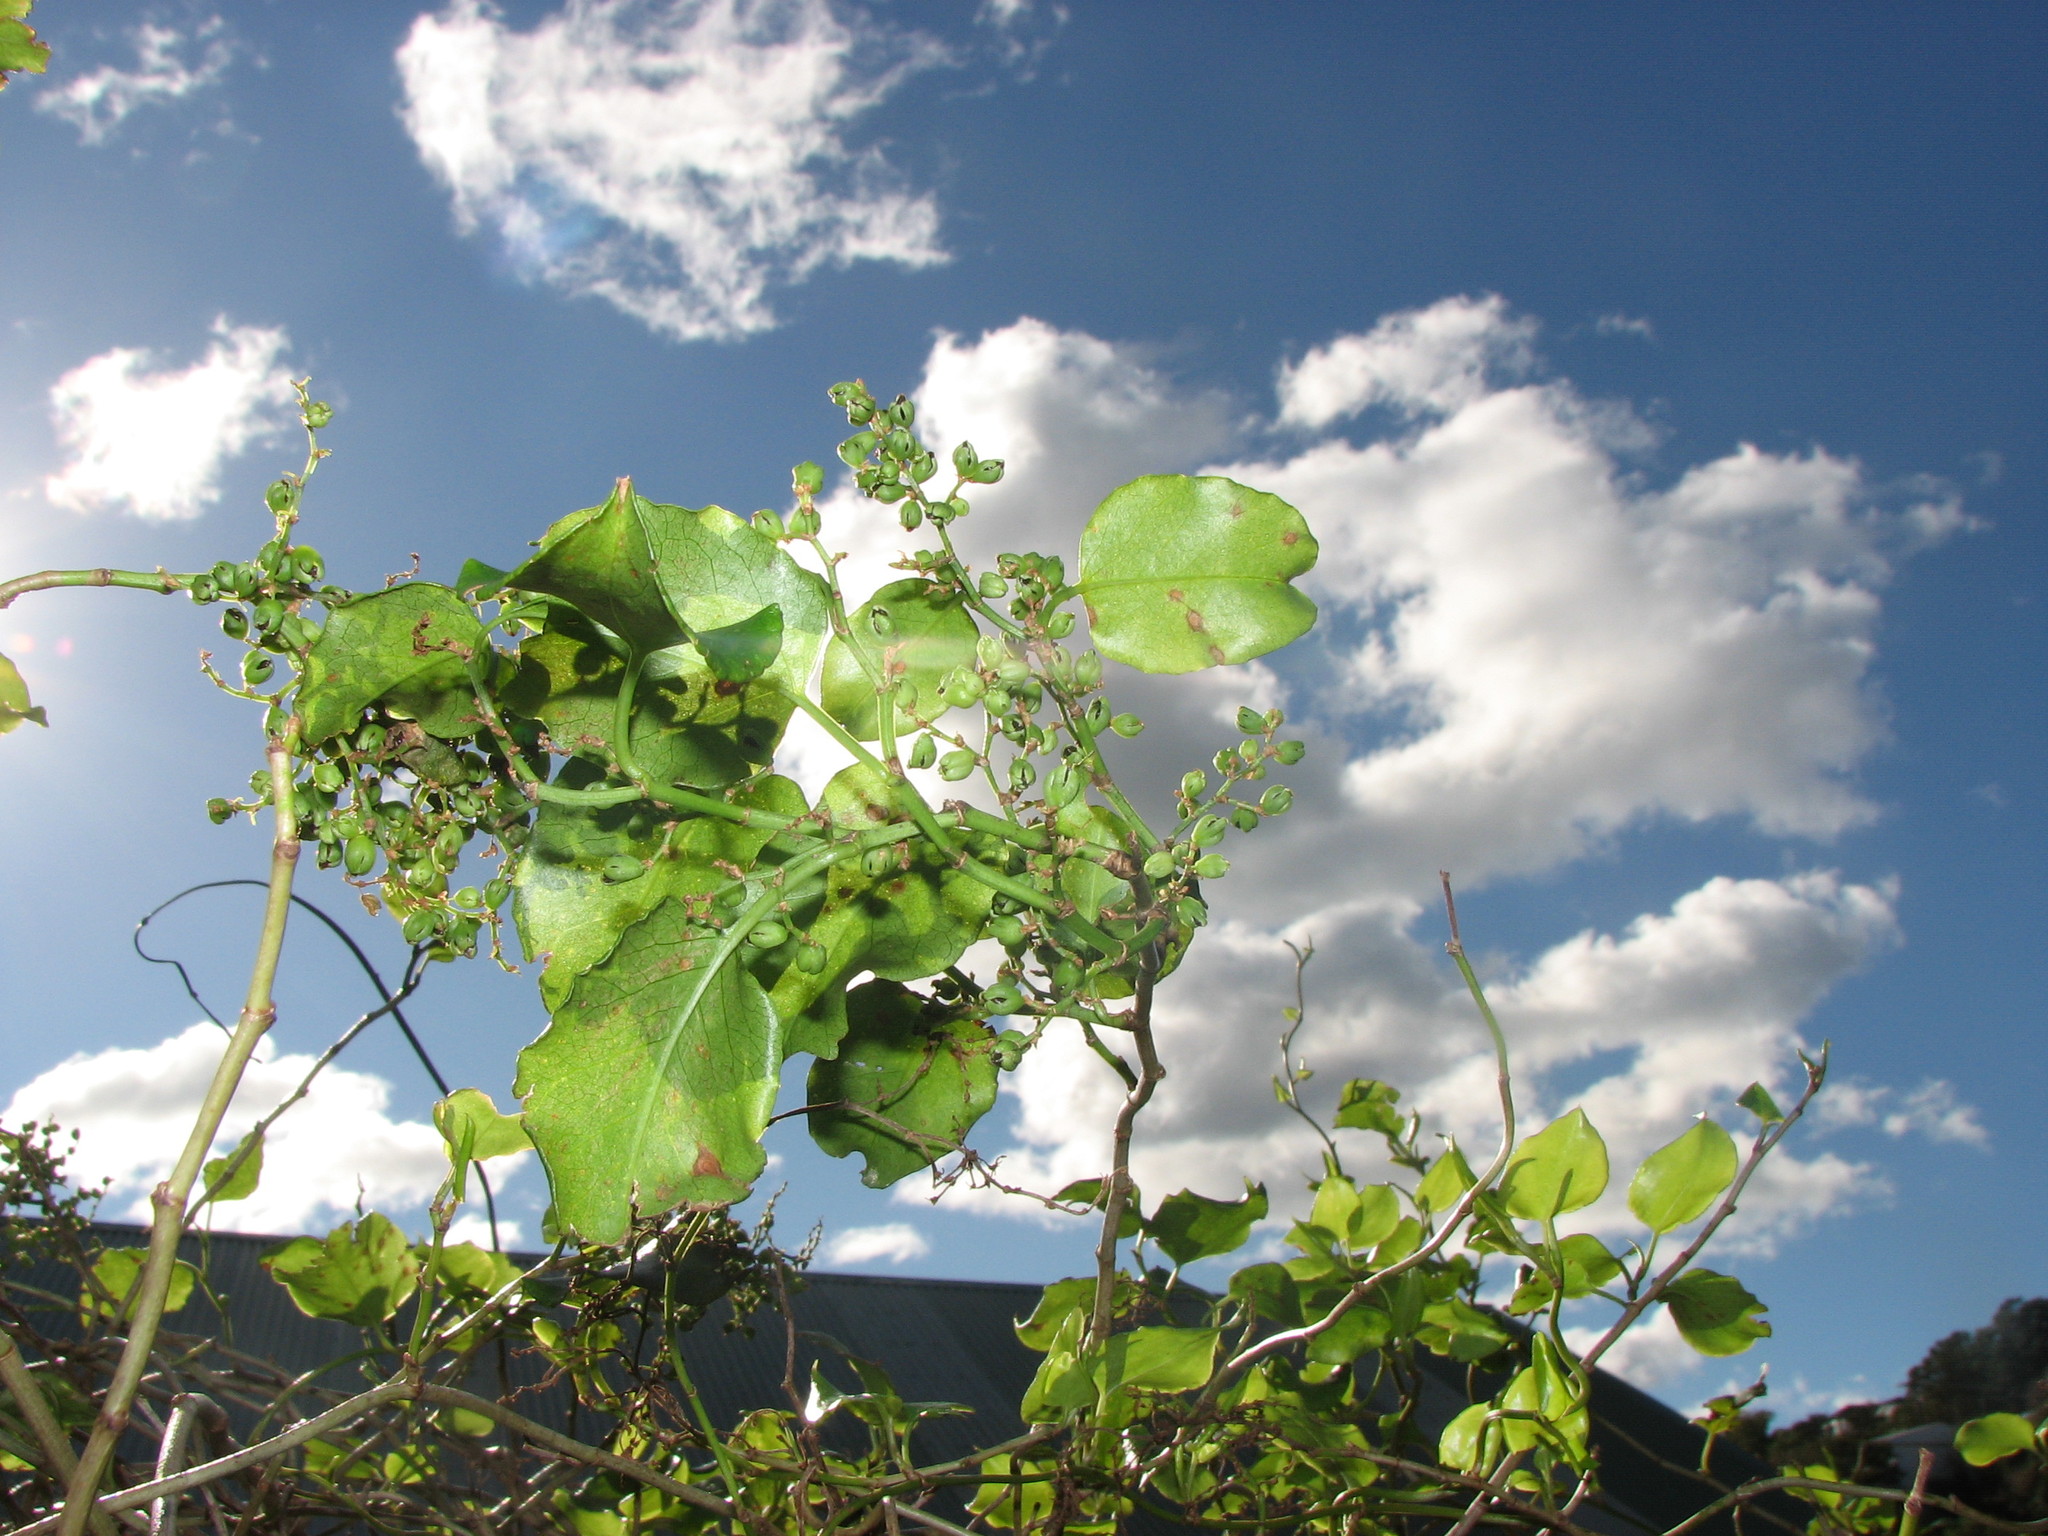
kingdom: Plantae
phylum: Tracheophyta
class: Magnoliopsida
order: Caryophyllales
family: Polygonaceae
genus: Muehlenbeckia
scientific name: Muehlenbeckia australis
